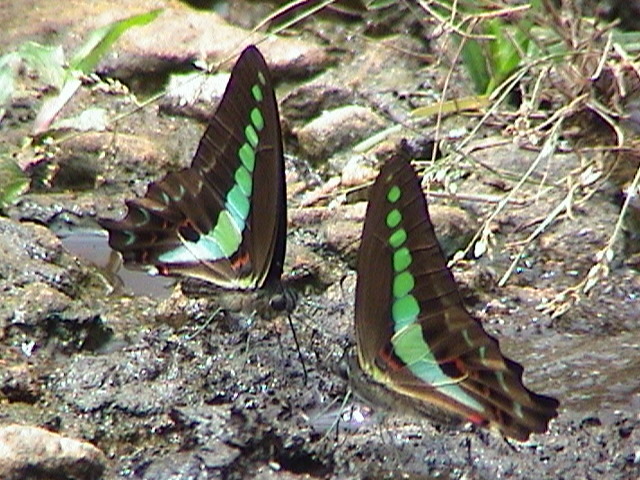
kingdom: Animalia
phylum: Arthropoda
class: Insecta
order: Lepidoptera
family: Papilionidae
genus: Graphium
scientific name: Graphium
